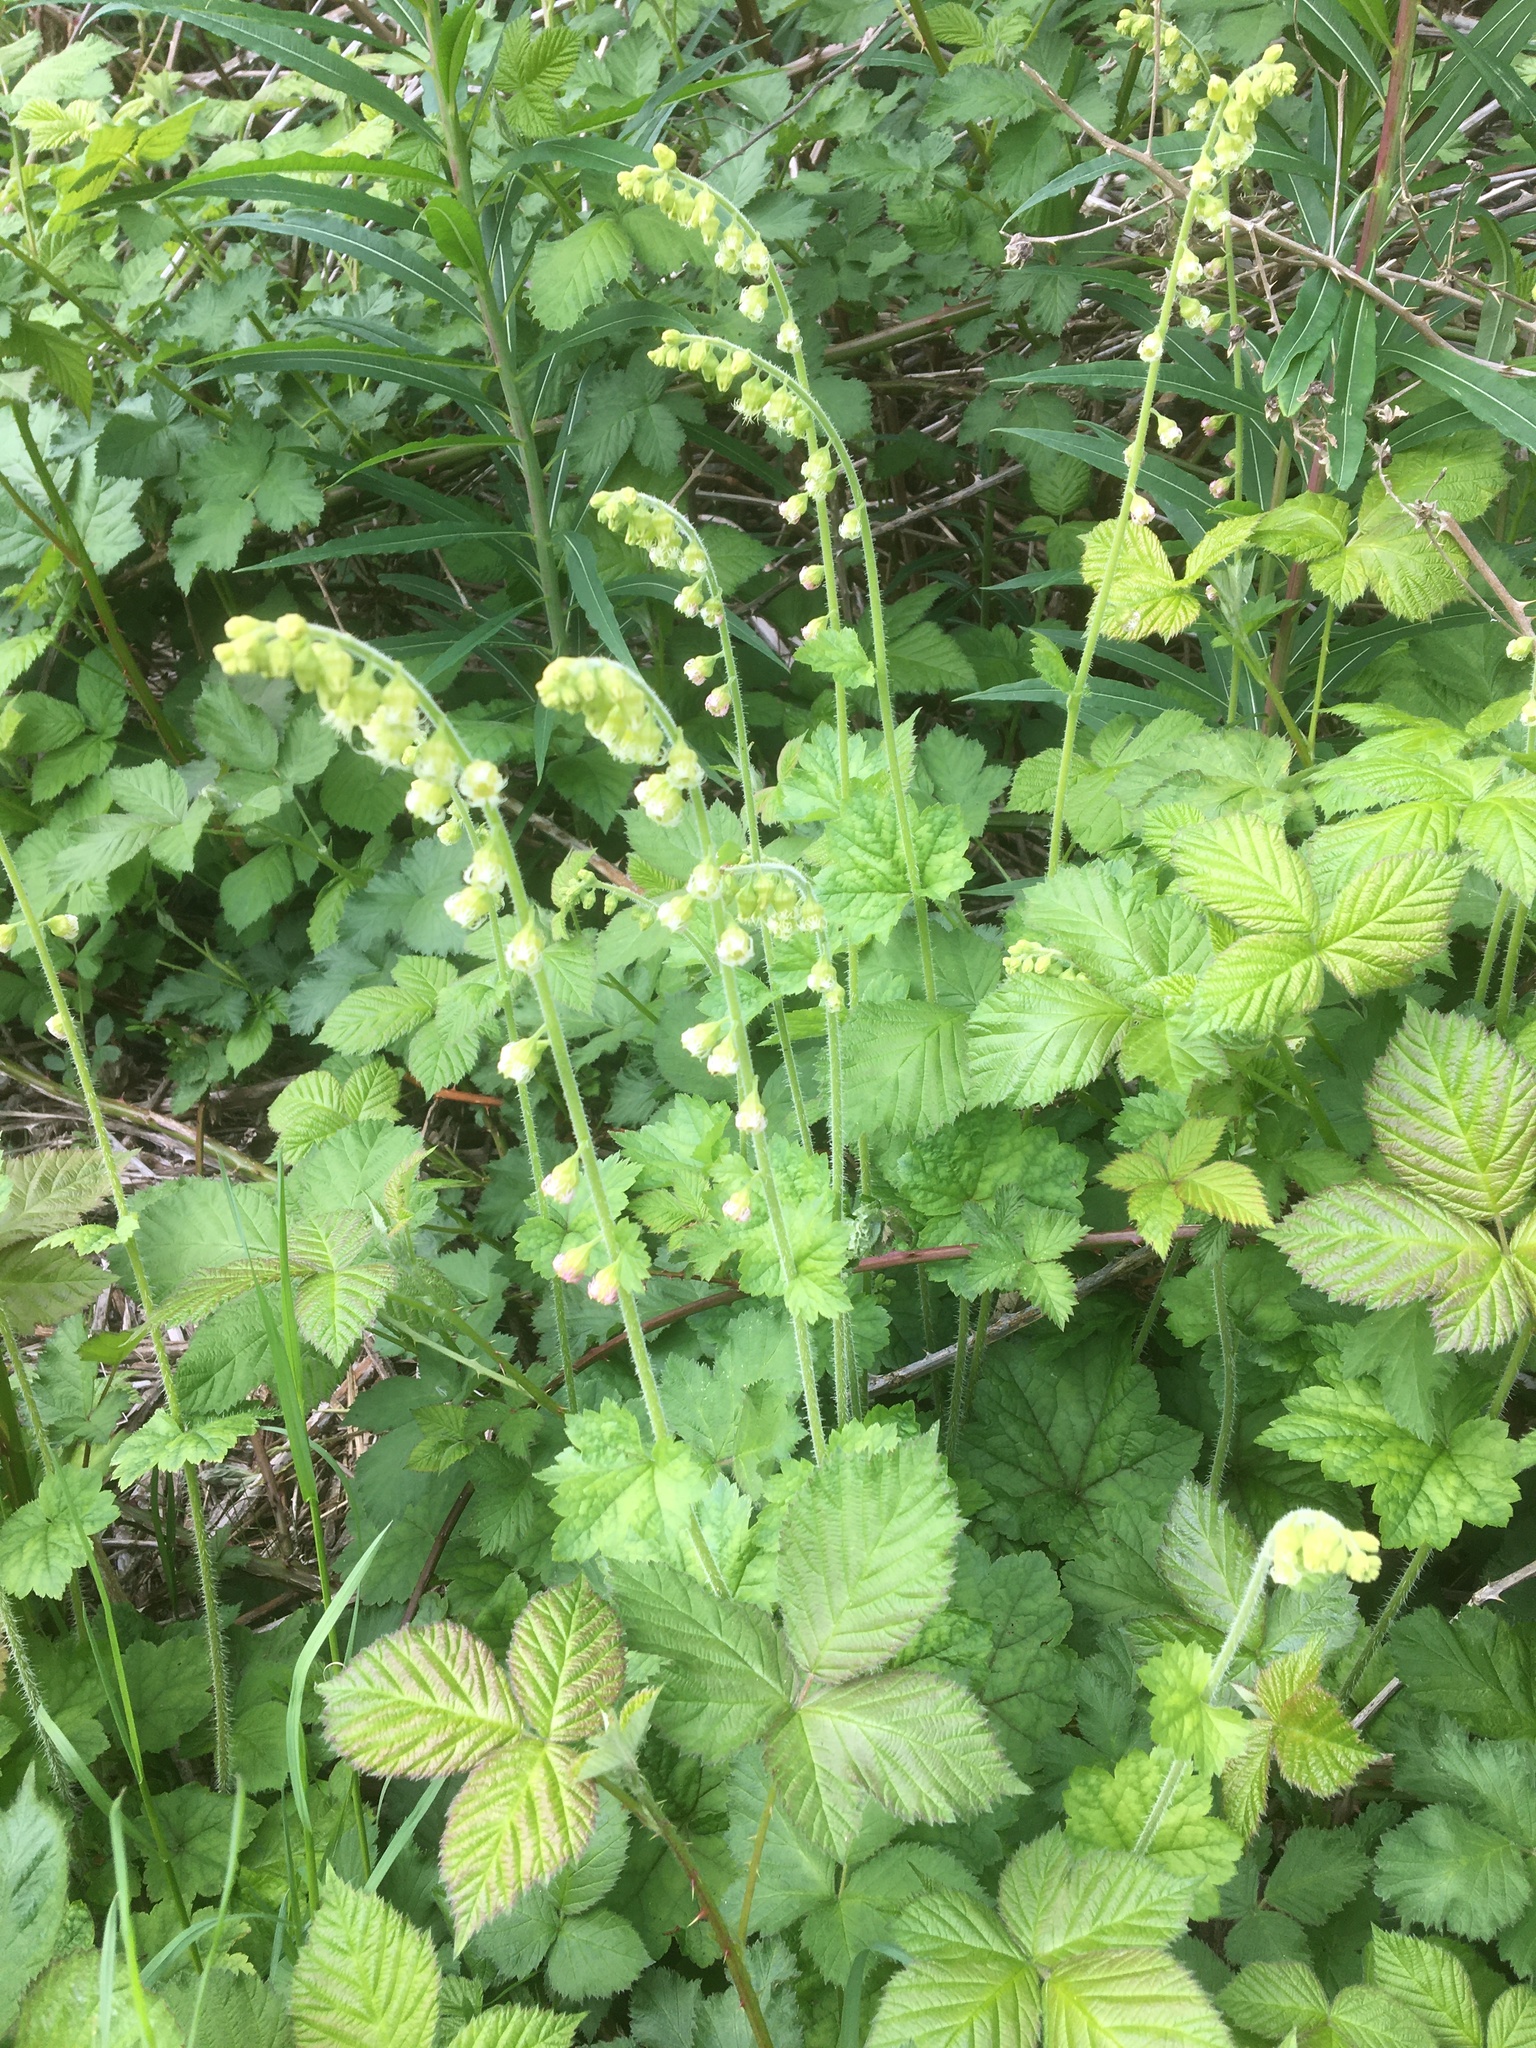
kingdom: Plantae
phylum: Tracheophyta
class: Magnoliopsida
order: Saxifragales
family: Saxifragaceae
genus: Tellima
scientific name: Tellima grandiflora
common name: Fringecups
